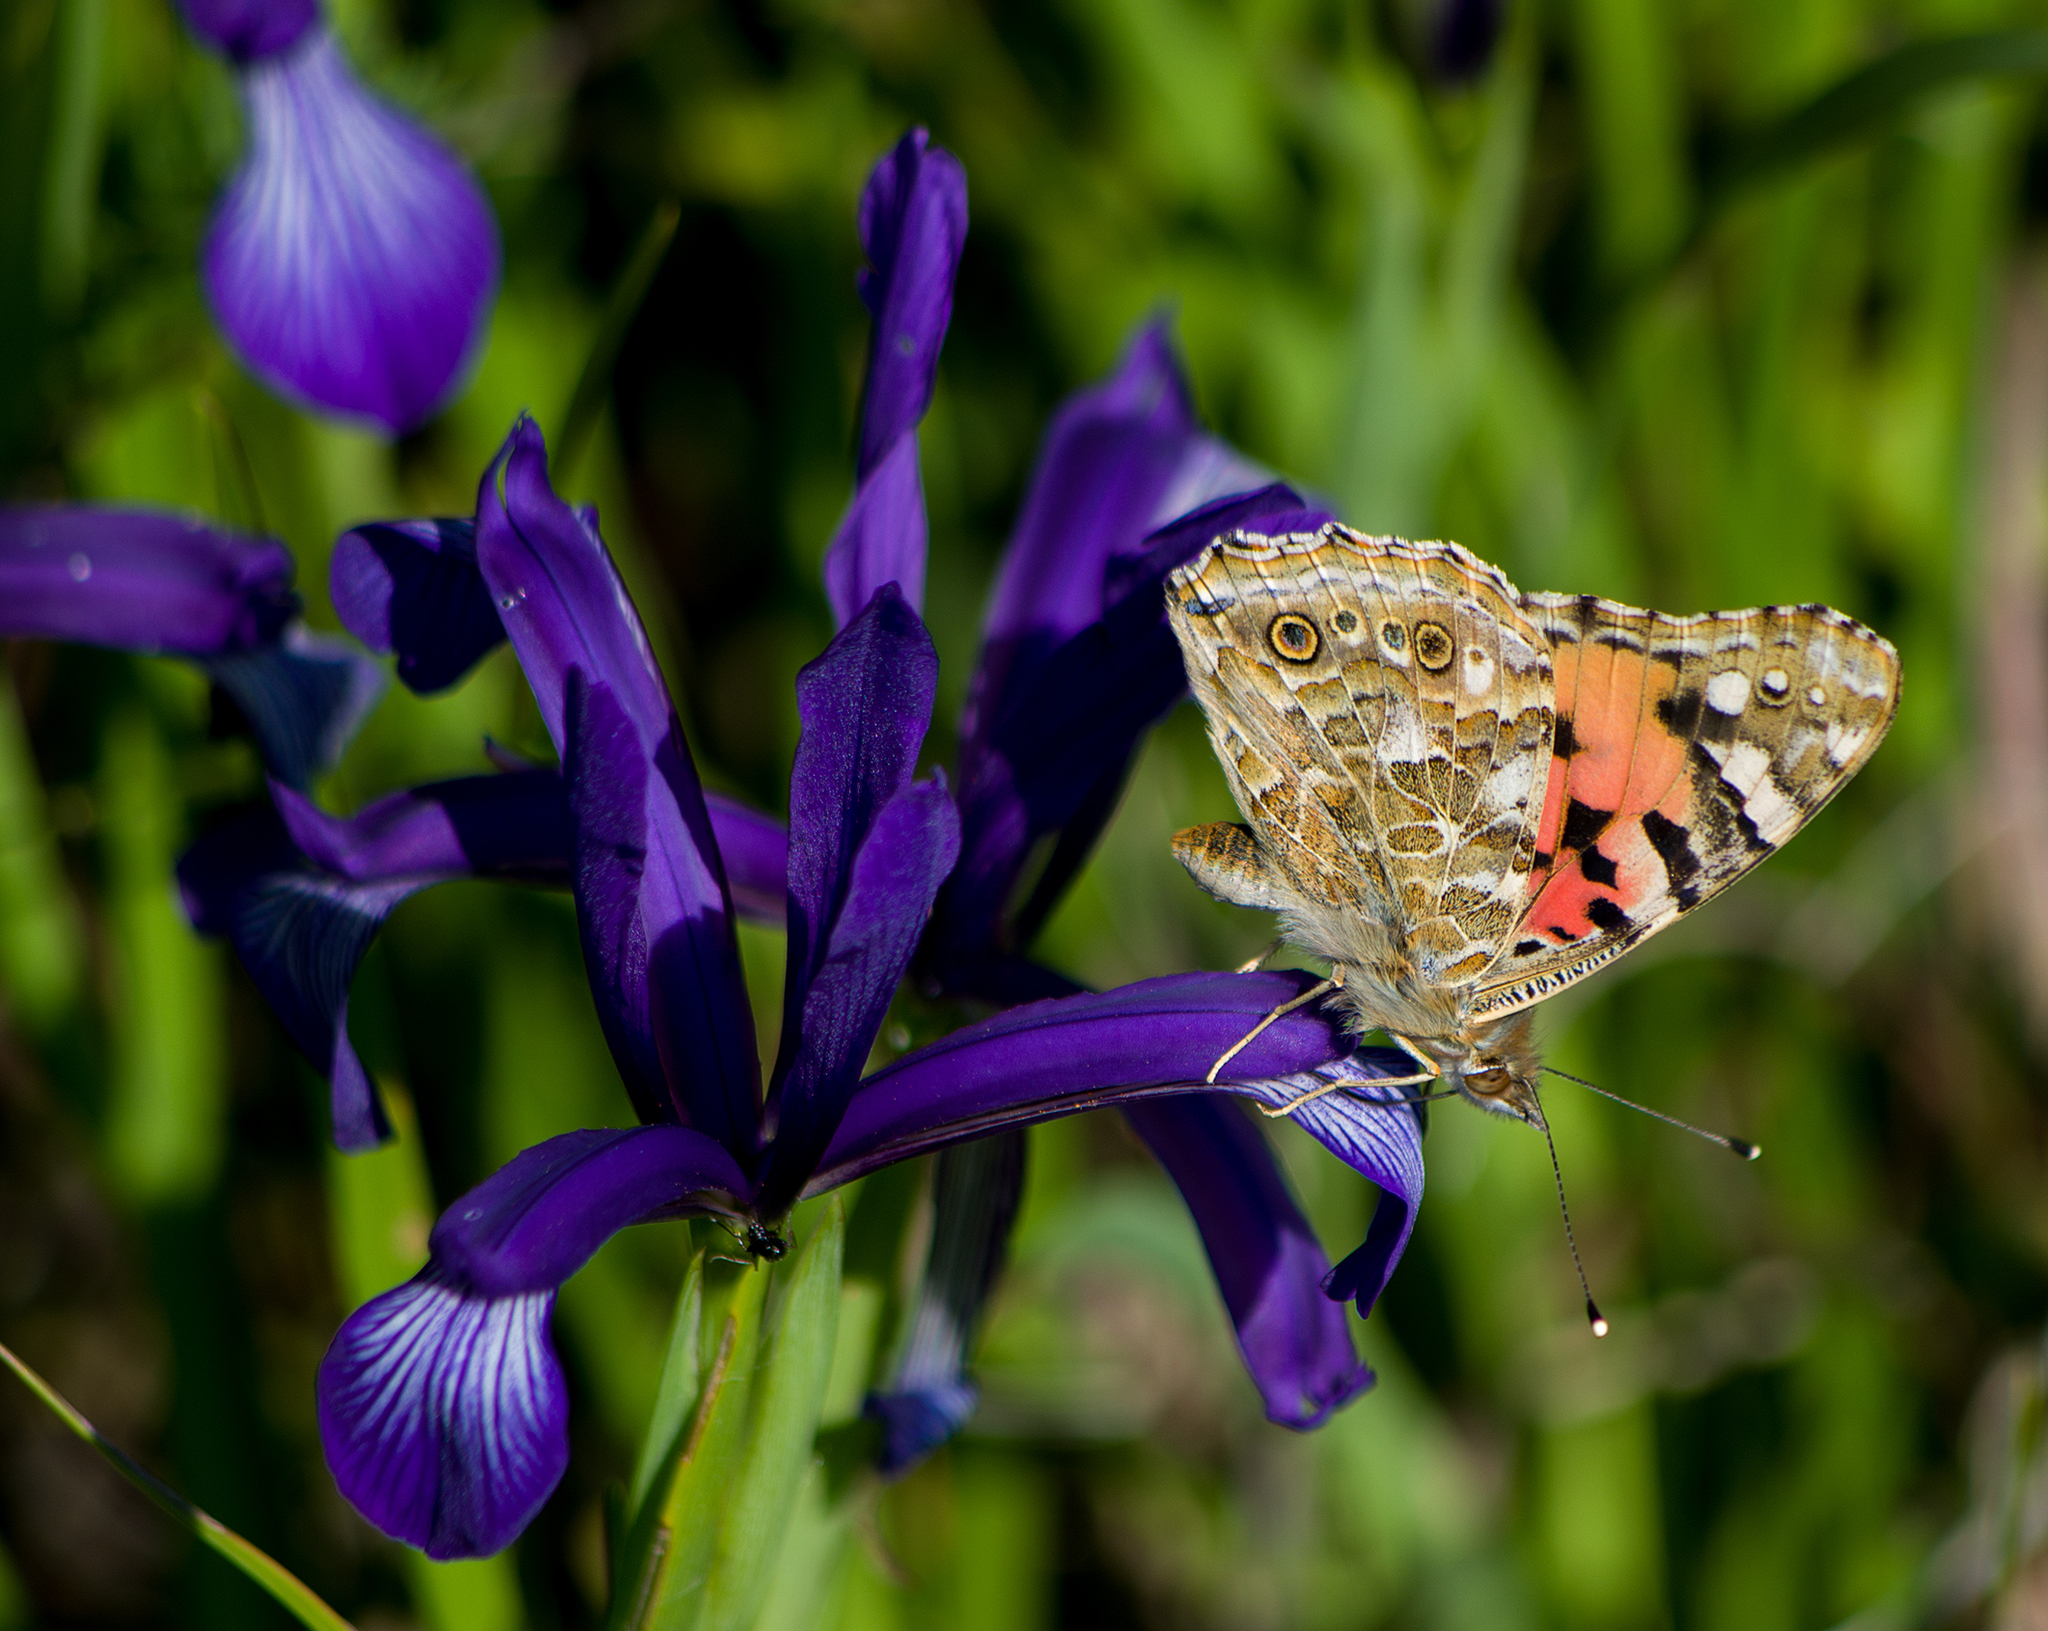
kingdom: Plantae
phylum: Tracheophyta
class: Liliopsida
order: Asparagales
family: Iridaceae
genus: Iris
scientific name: Iris sintenisii
